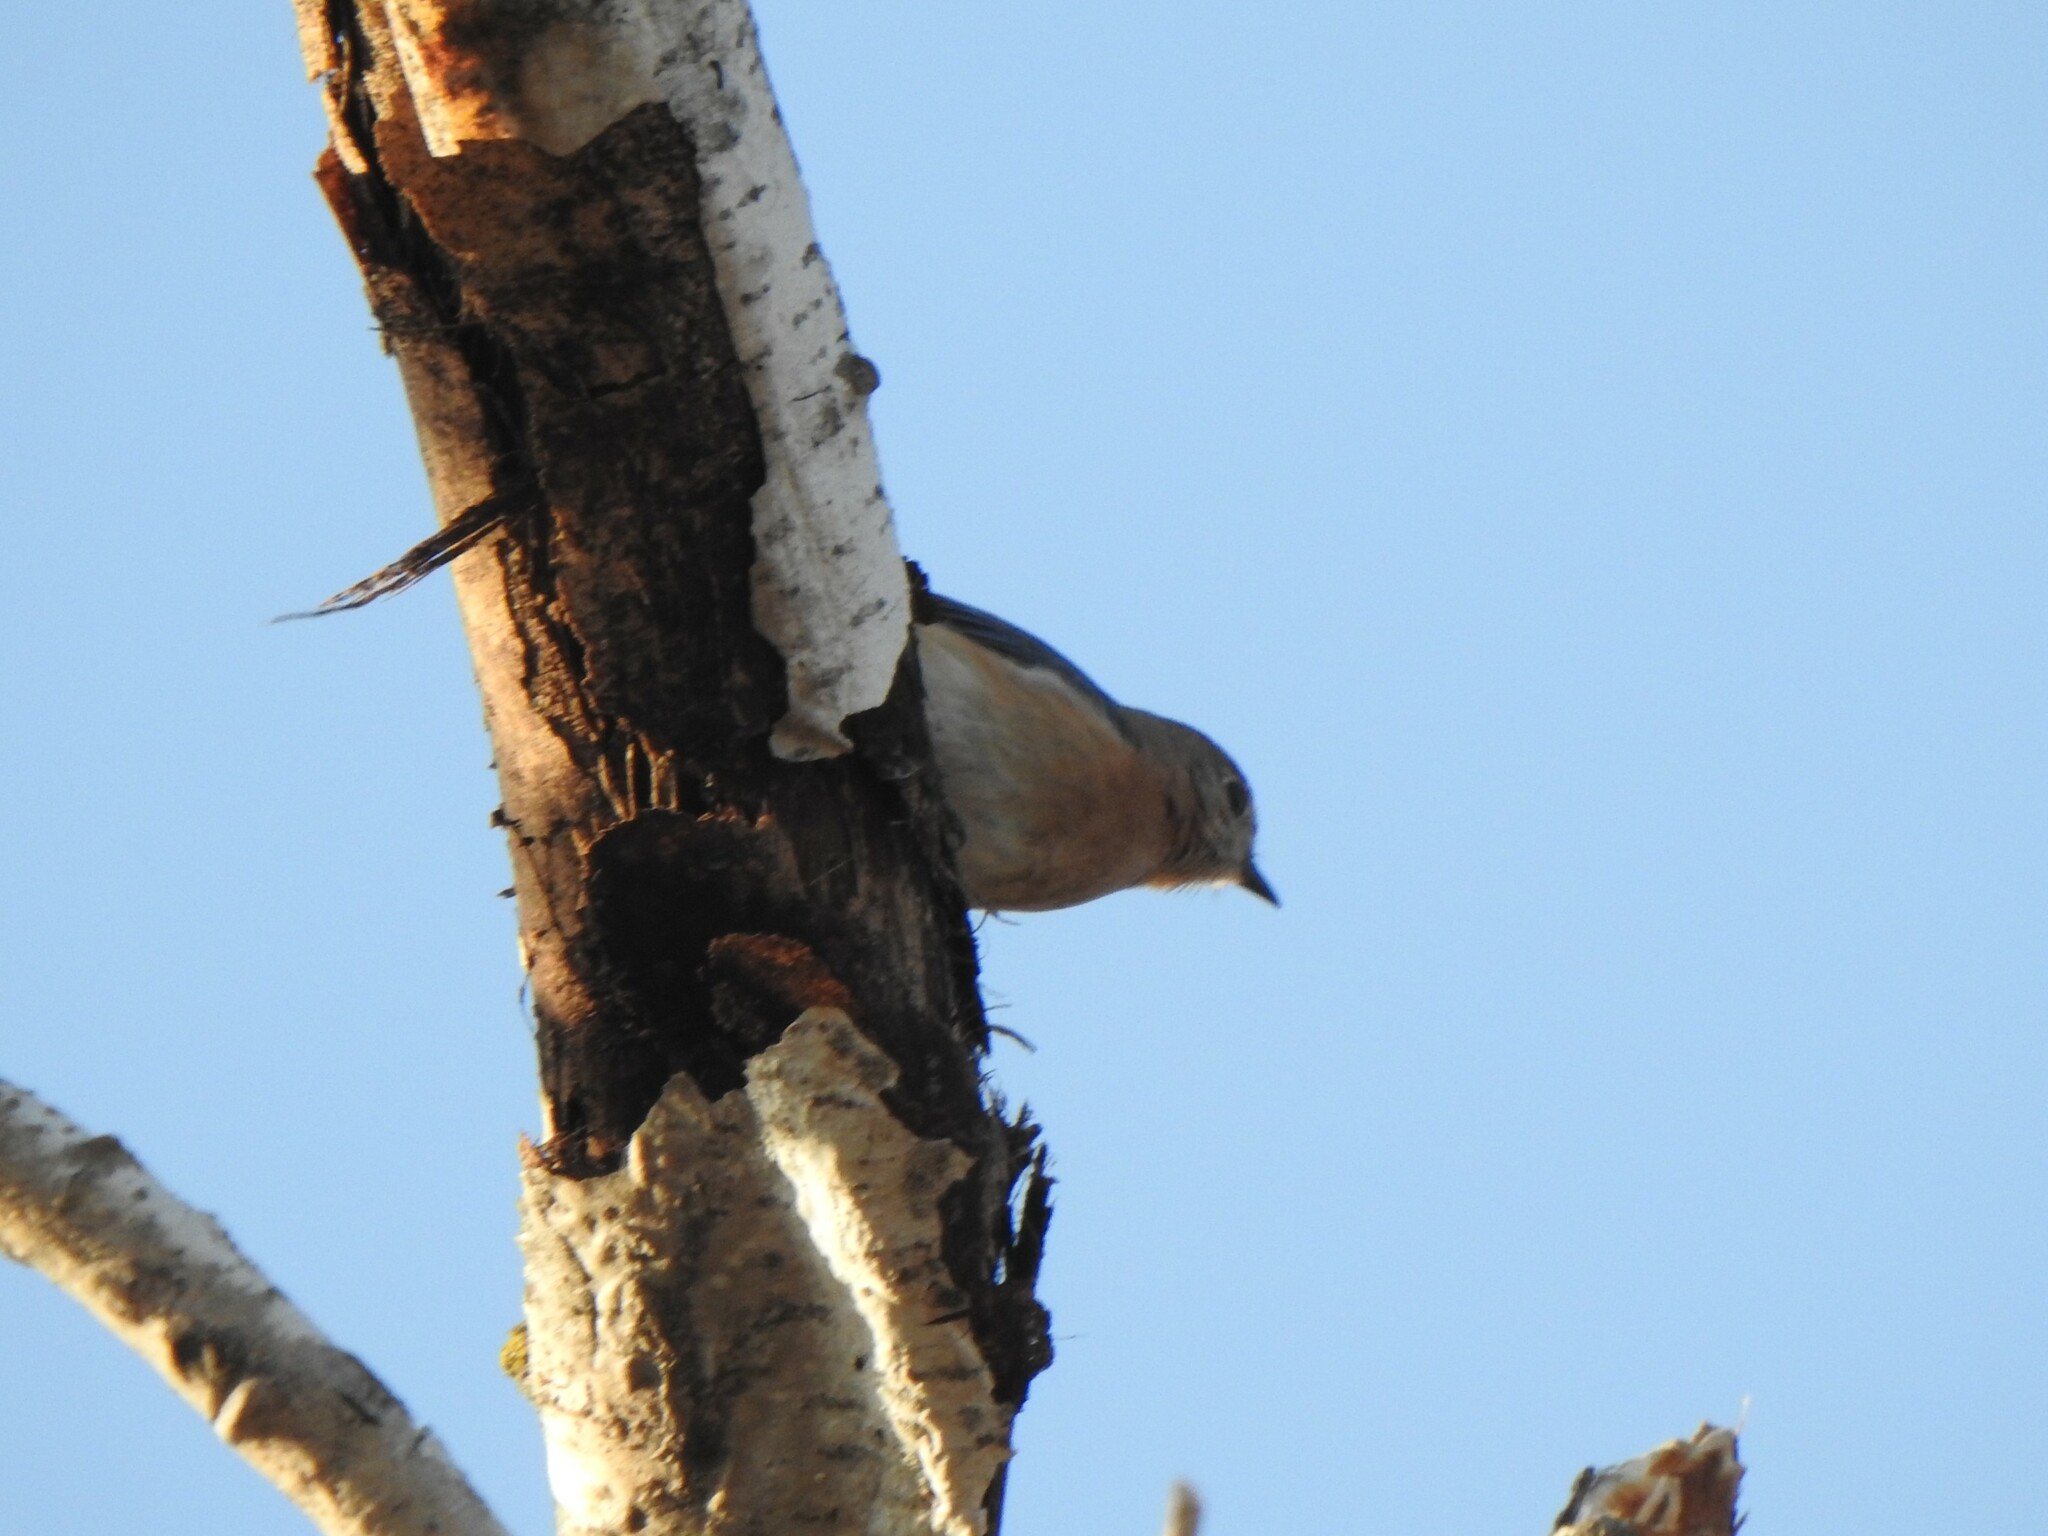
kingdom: Animalia
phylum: Chordata
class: Aves
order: Passeriformes
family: Turdidae
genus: Sialia
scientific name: Sialia sialis
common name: Eastern bluebird
